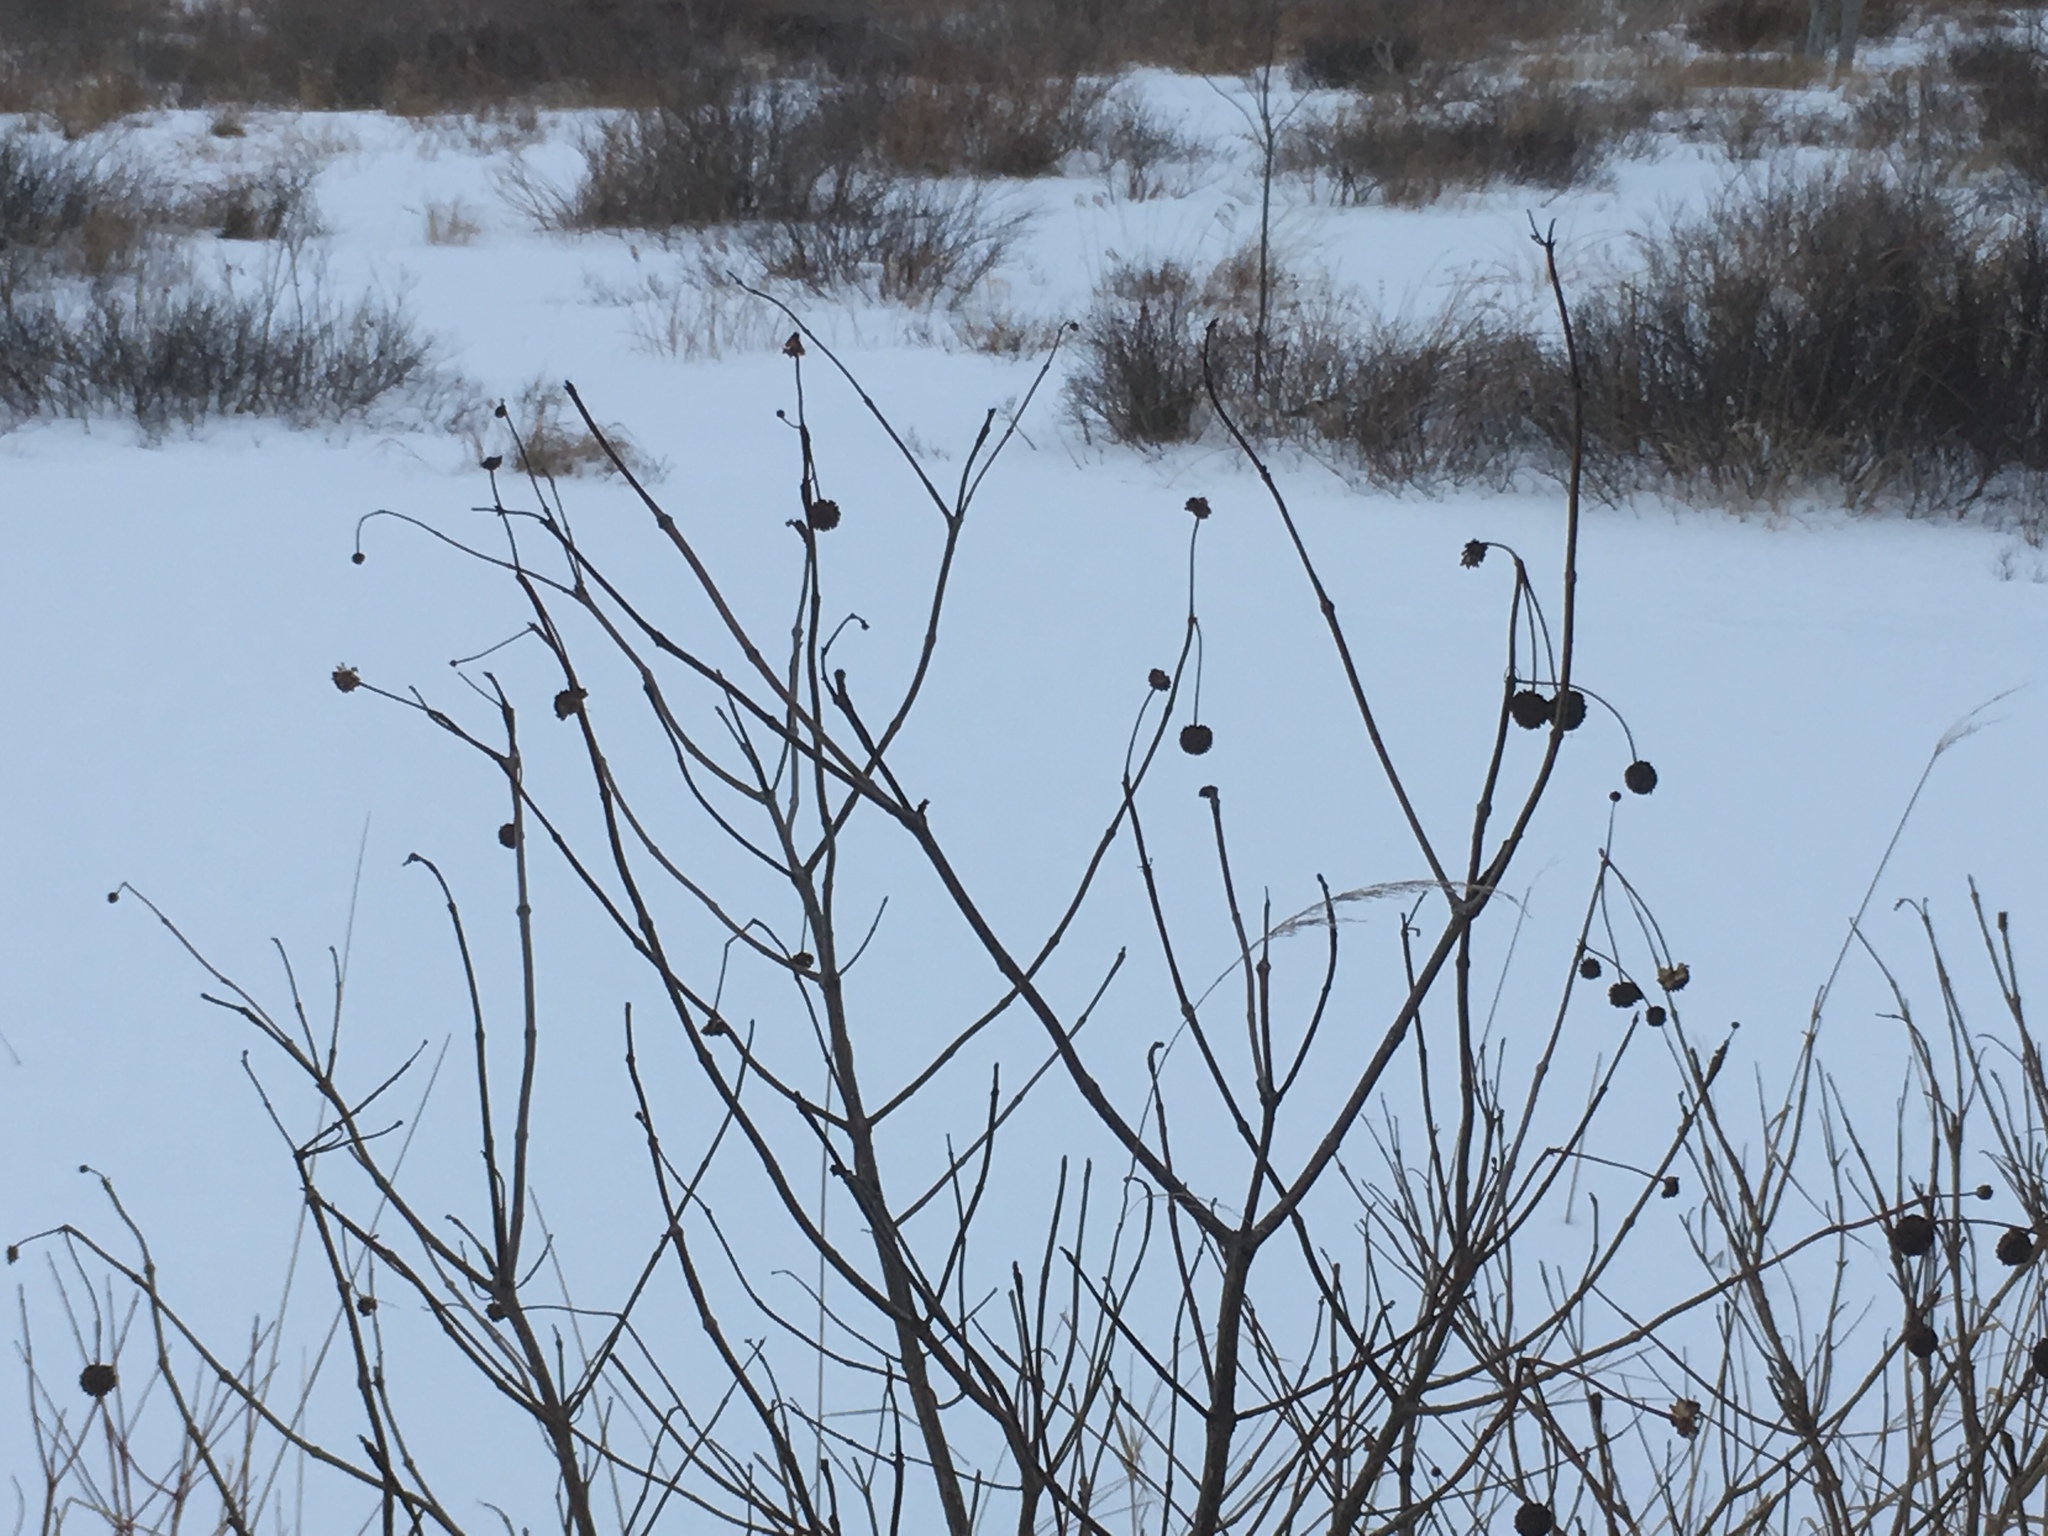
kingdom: Plantae
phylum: Tracheophyta
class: Magnoliopsida
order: Gentianales
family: Rubiaceae
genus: Cephalanthus
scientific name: Cephalanthus occidentalis
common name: Button-willow
